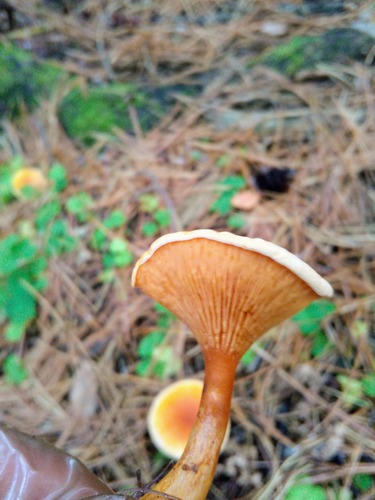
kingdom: Fungi
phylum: Basidiomycota
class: Agaricomycetes
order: Boletales
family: Hygrophoropsidaceae
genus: Hygrophoropsis
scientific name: Hygrophoropsis aurantiaca
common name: False chanterelle
